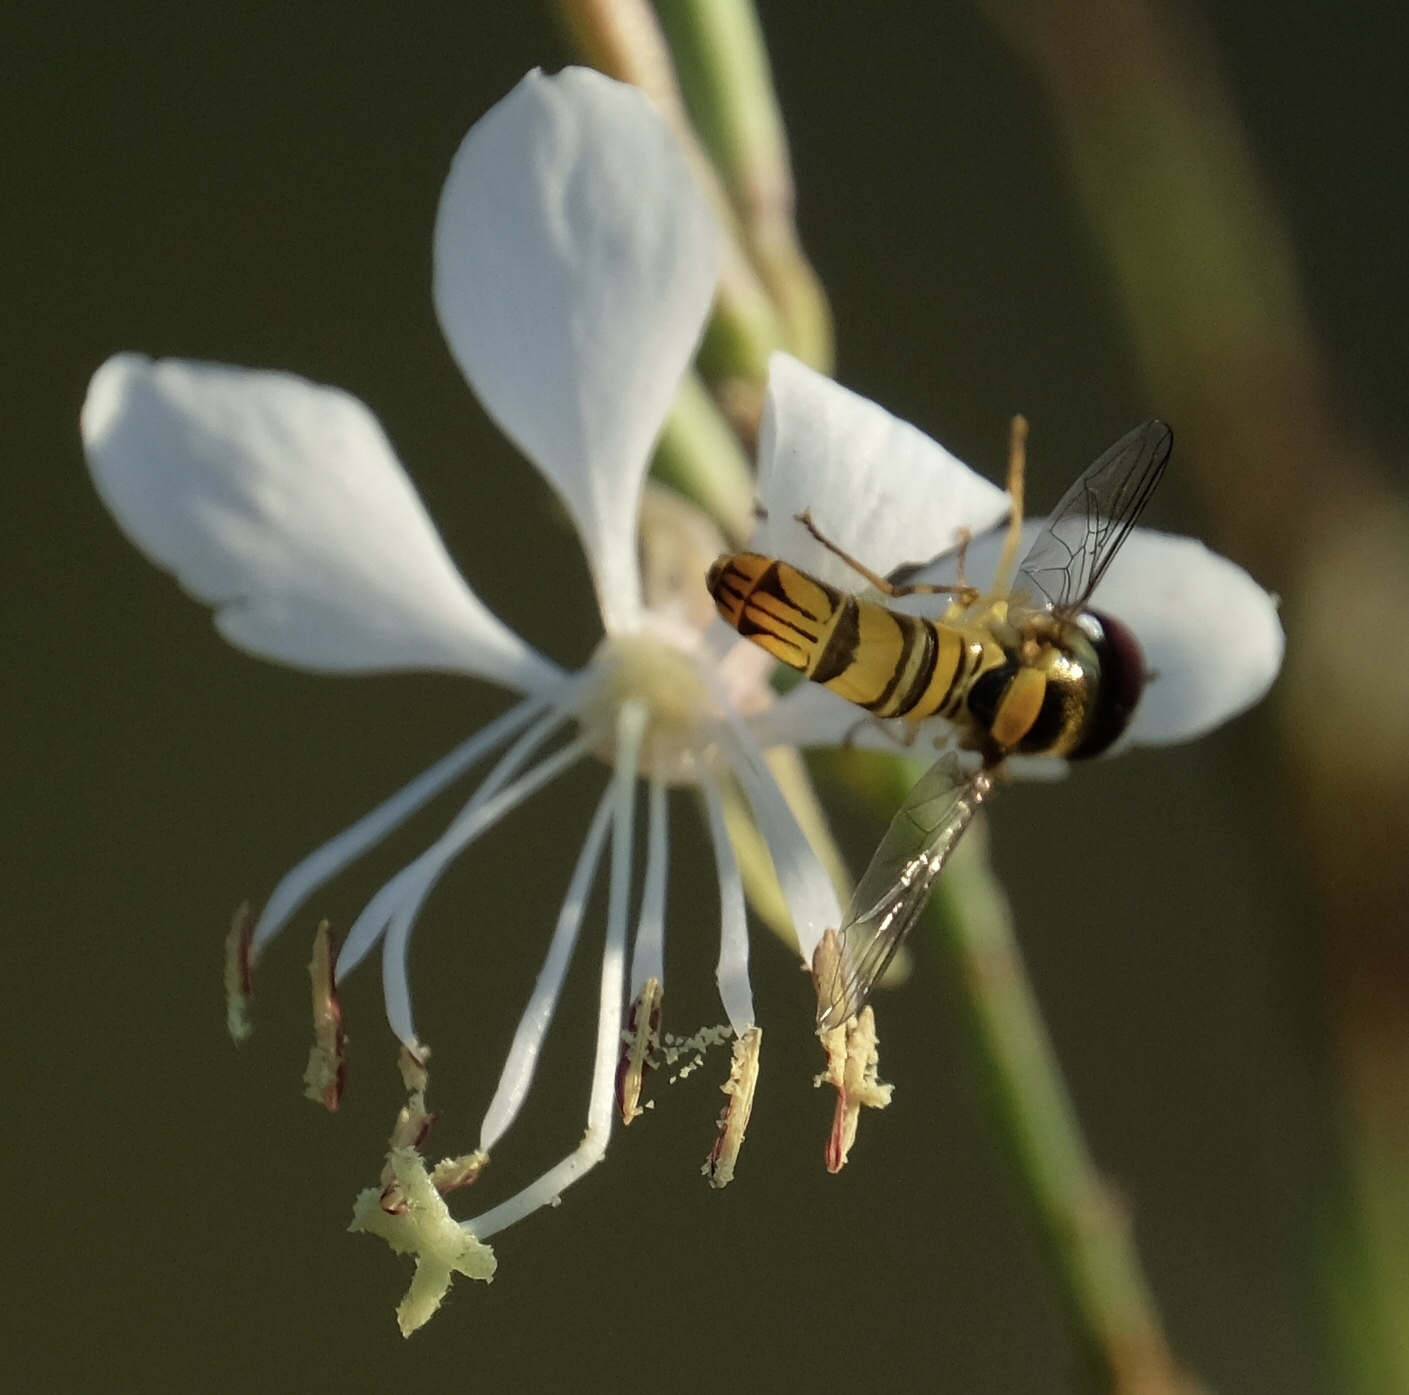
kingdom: Animalia
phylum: Arthropoda
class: Insecta
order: Diptera
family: Syrphidae
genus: Allograpta
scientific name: Allograpta obliqua
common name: Common oblique syrphid
